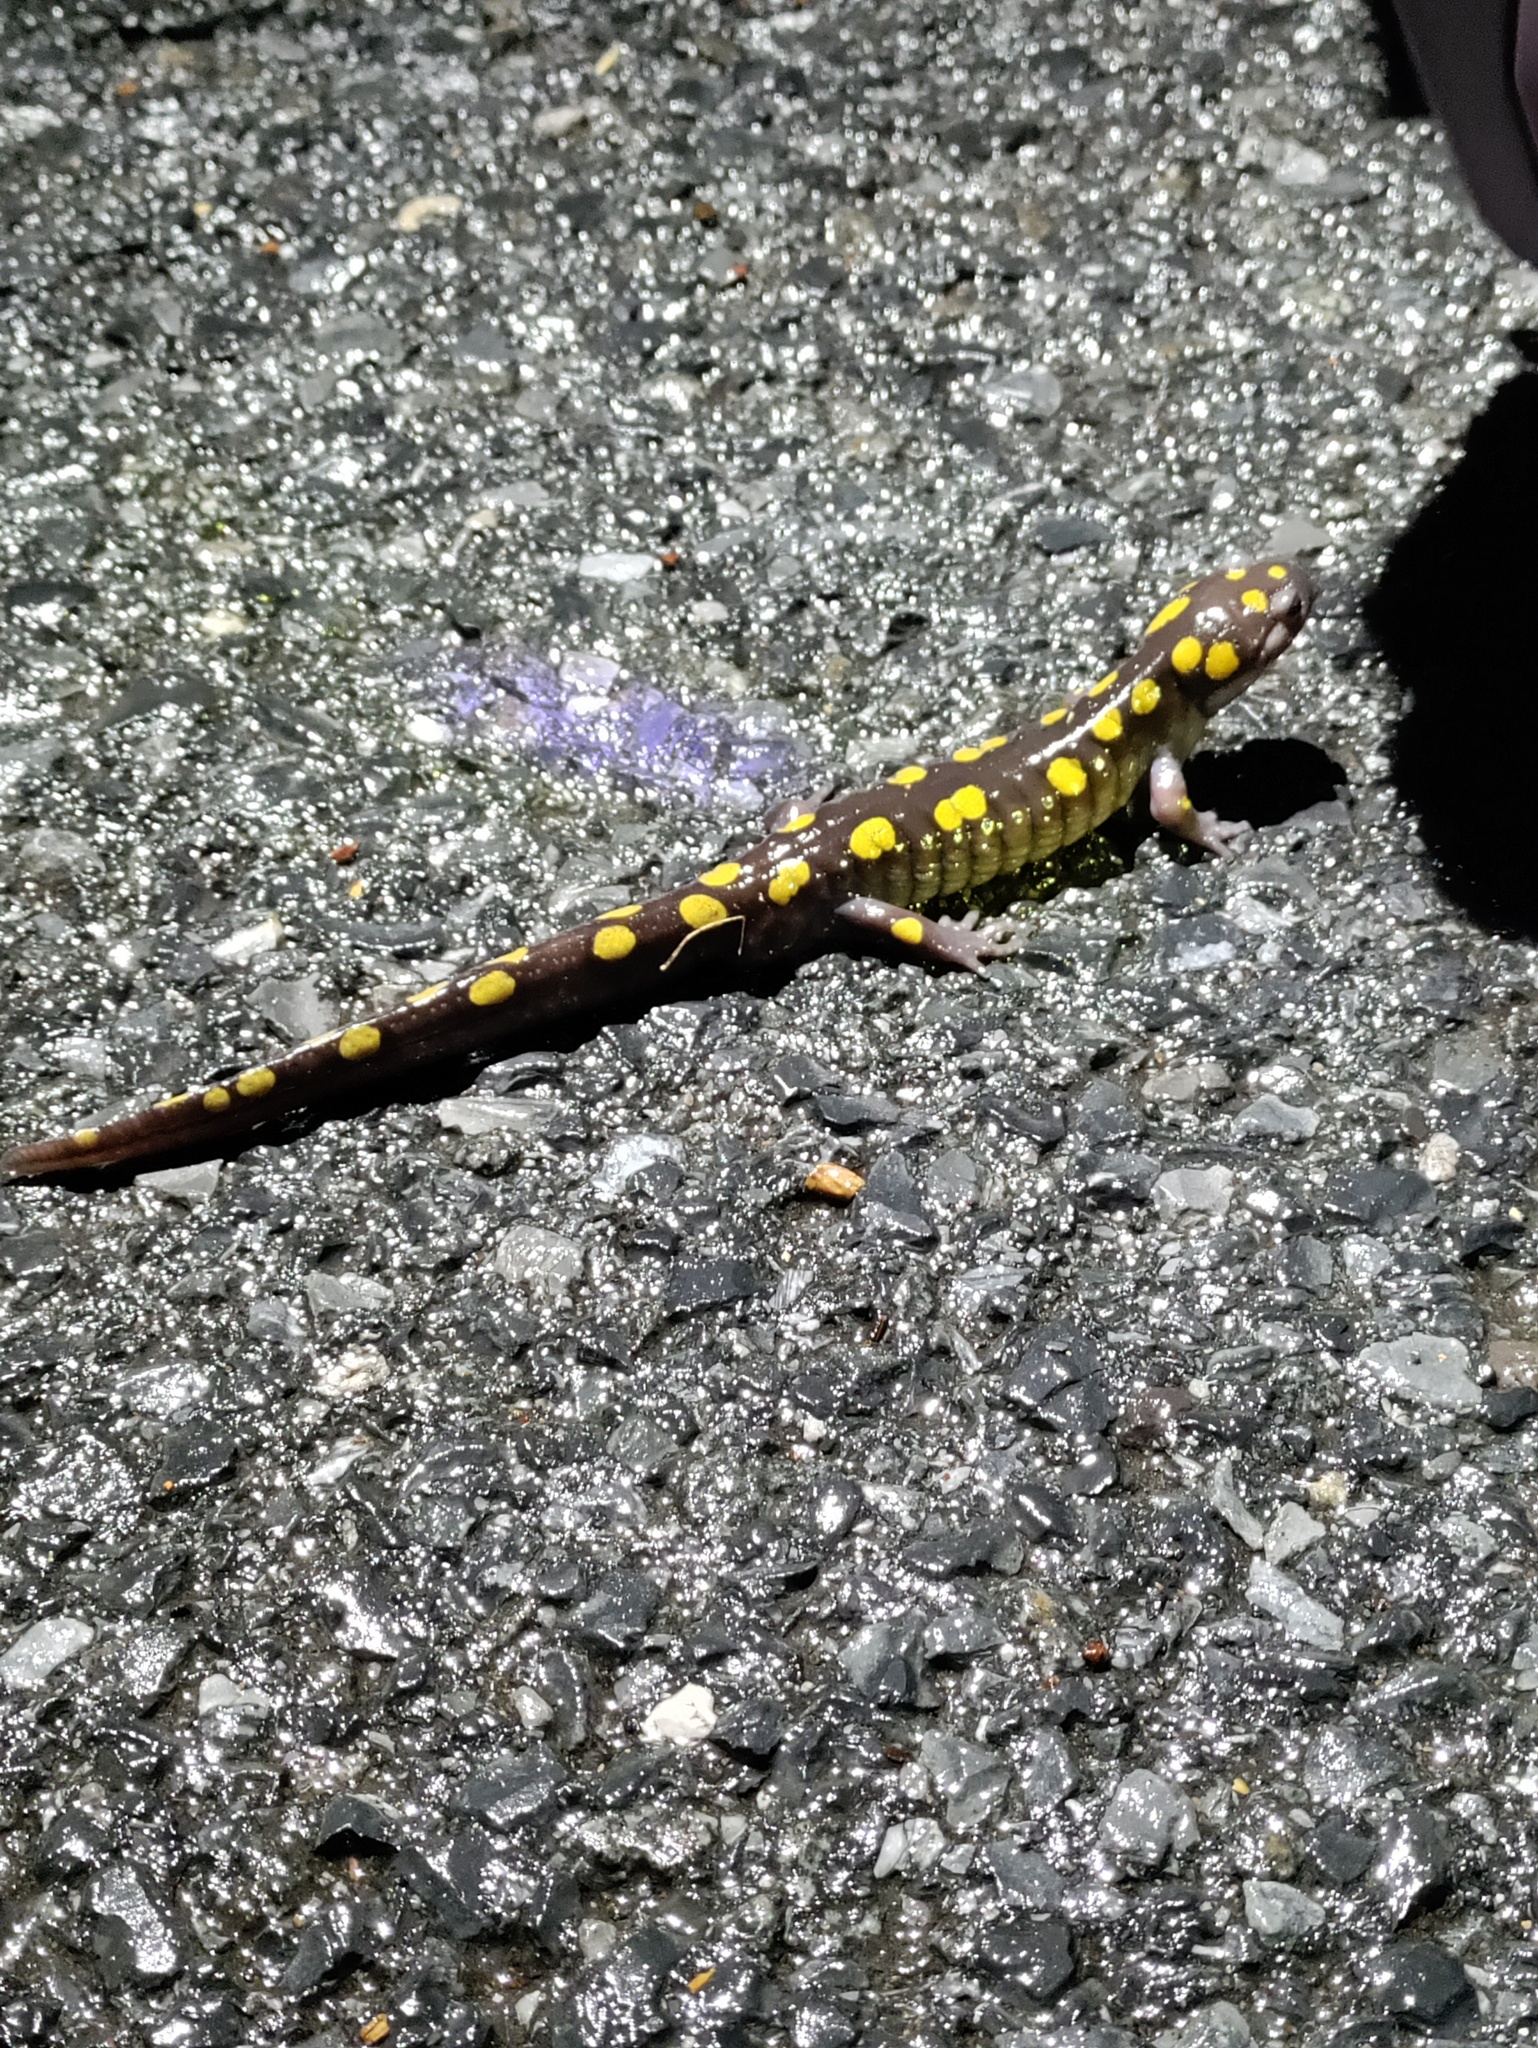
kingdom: Animalia
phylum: Chordata
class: Amphibia
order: Caudata
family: Ambystomatidae
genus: Ambystoma
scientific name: Ambystoma maculatum
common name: Spotted salamander
